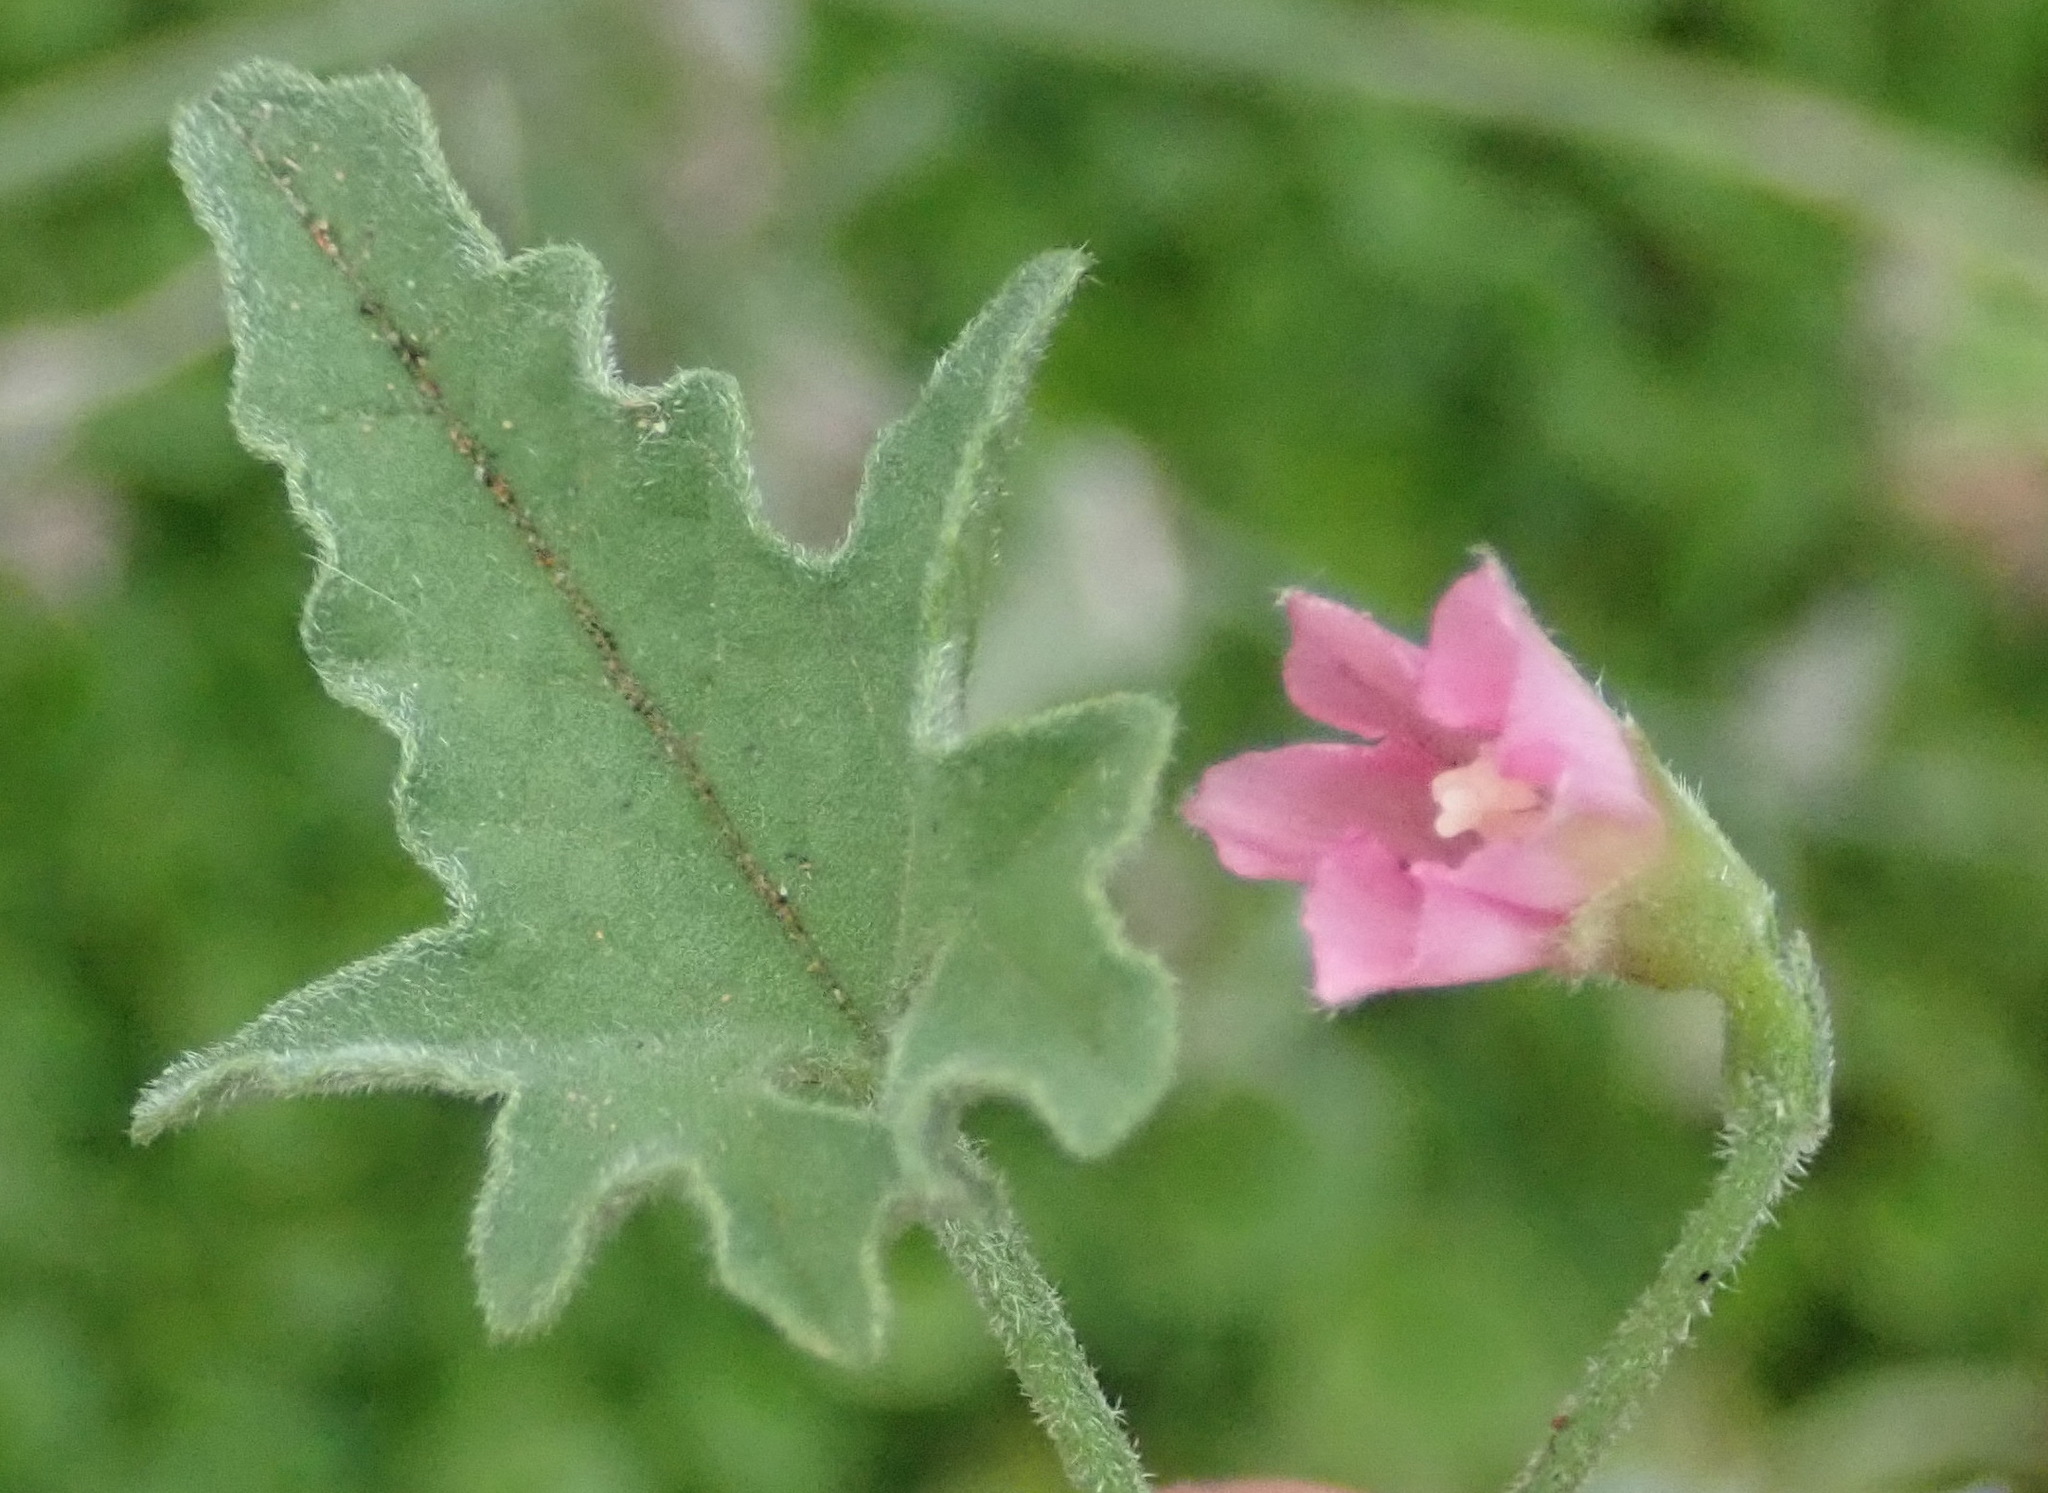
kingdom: Plantae
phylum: Tracheophyta
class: Magnoliopsida
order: Solanales
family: Convolvulaceae
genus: Convolvulus
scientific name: Convolvulus capensis
